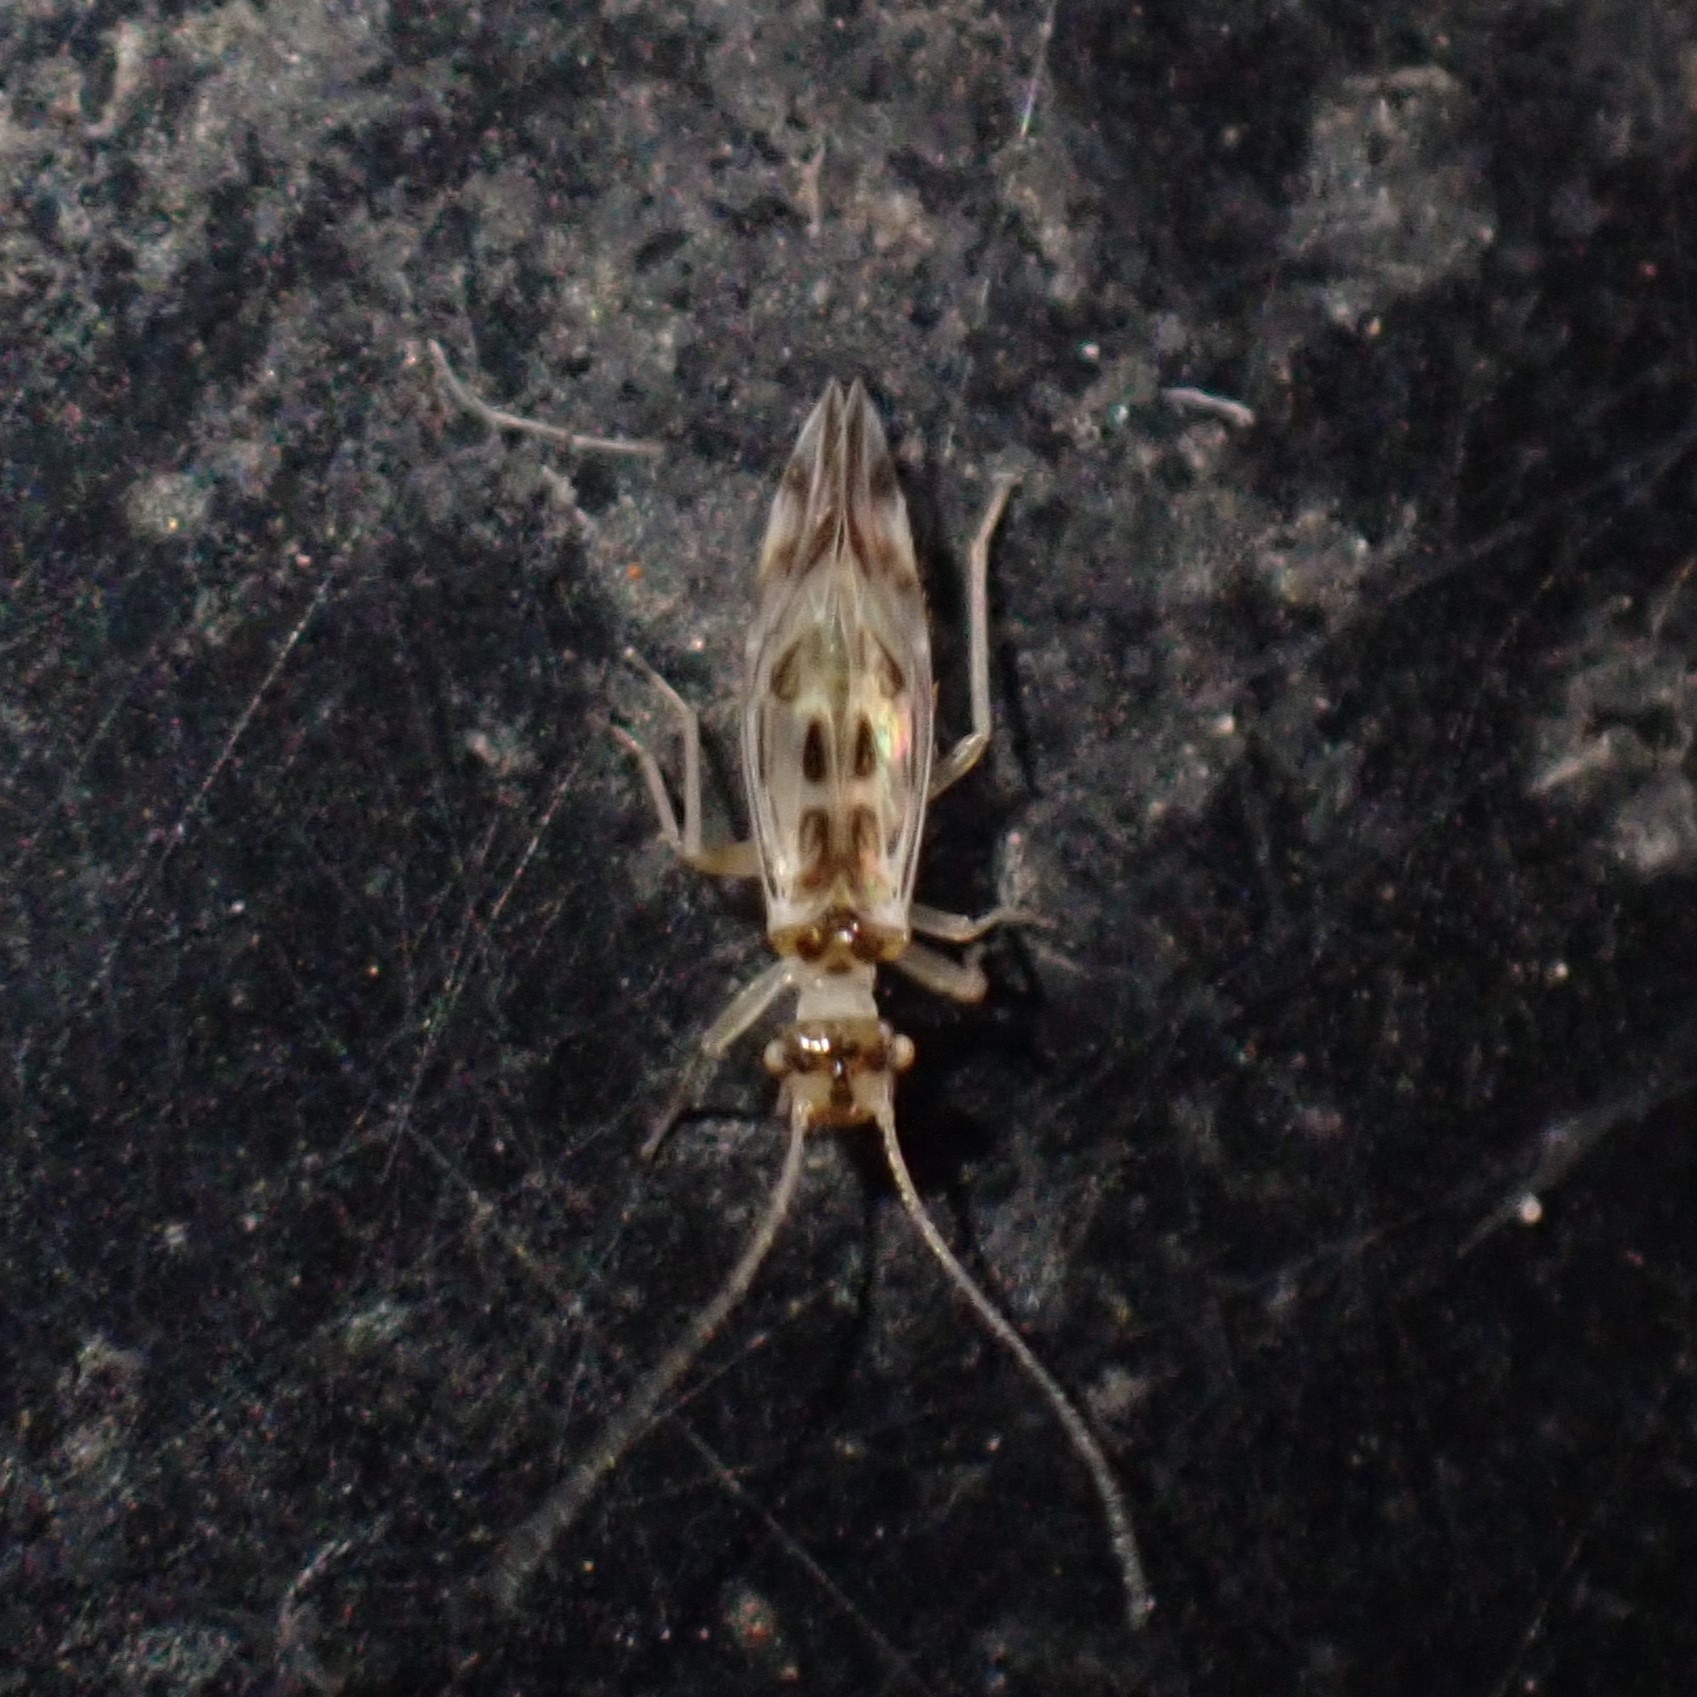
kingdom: Animalia
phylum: Arthropoda
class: Insecta
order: Psocodea
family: Stenopsocidae
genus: Graphopsocus
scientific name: Graphopsocus cruciatus
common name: Lizard bark louse
